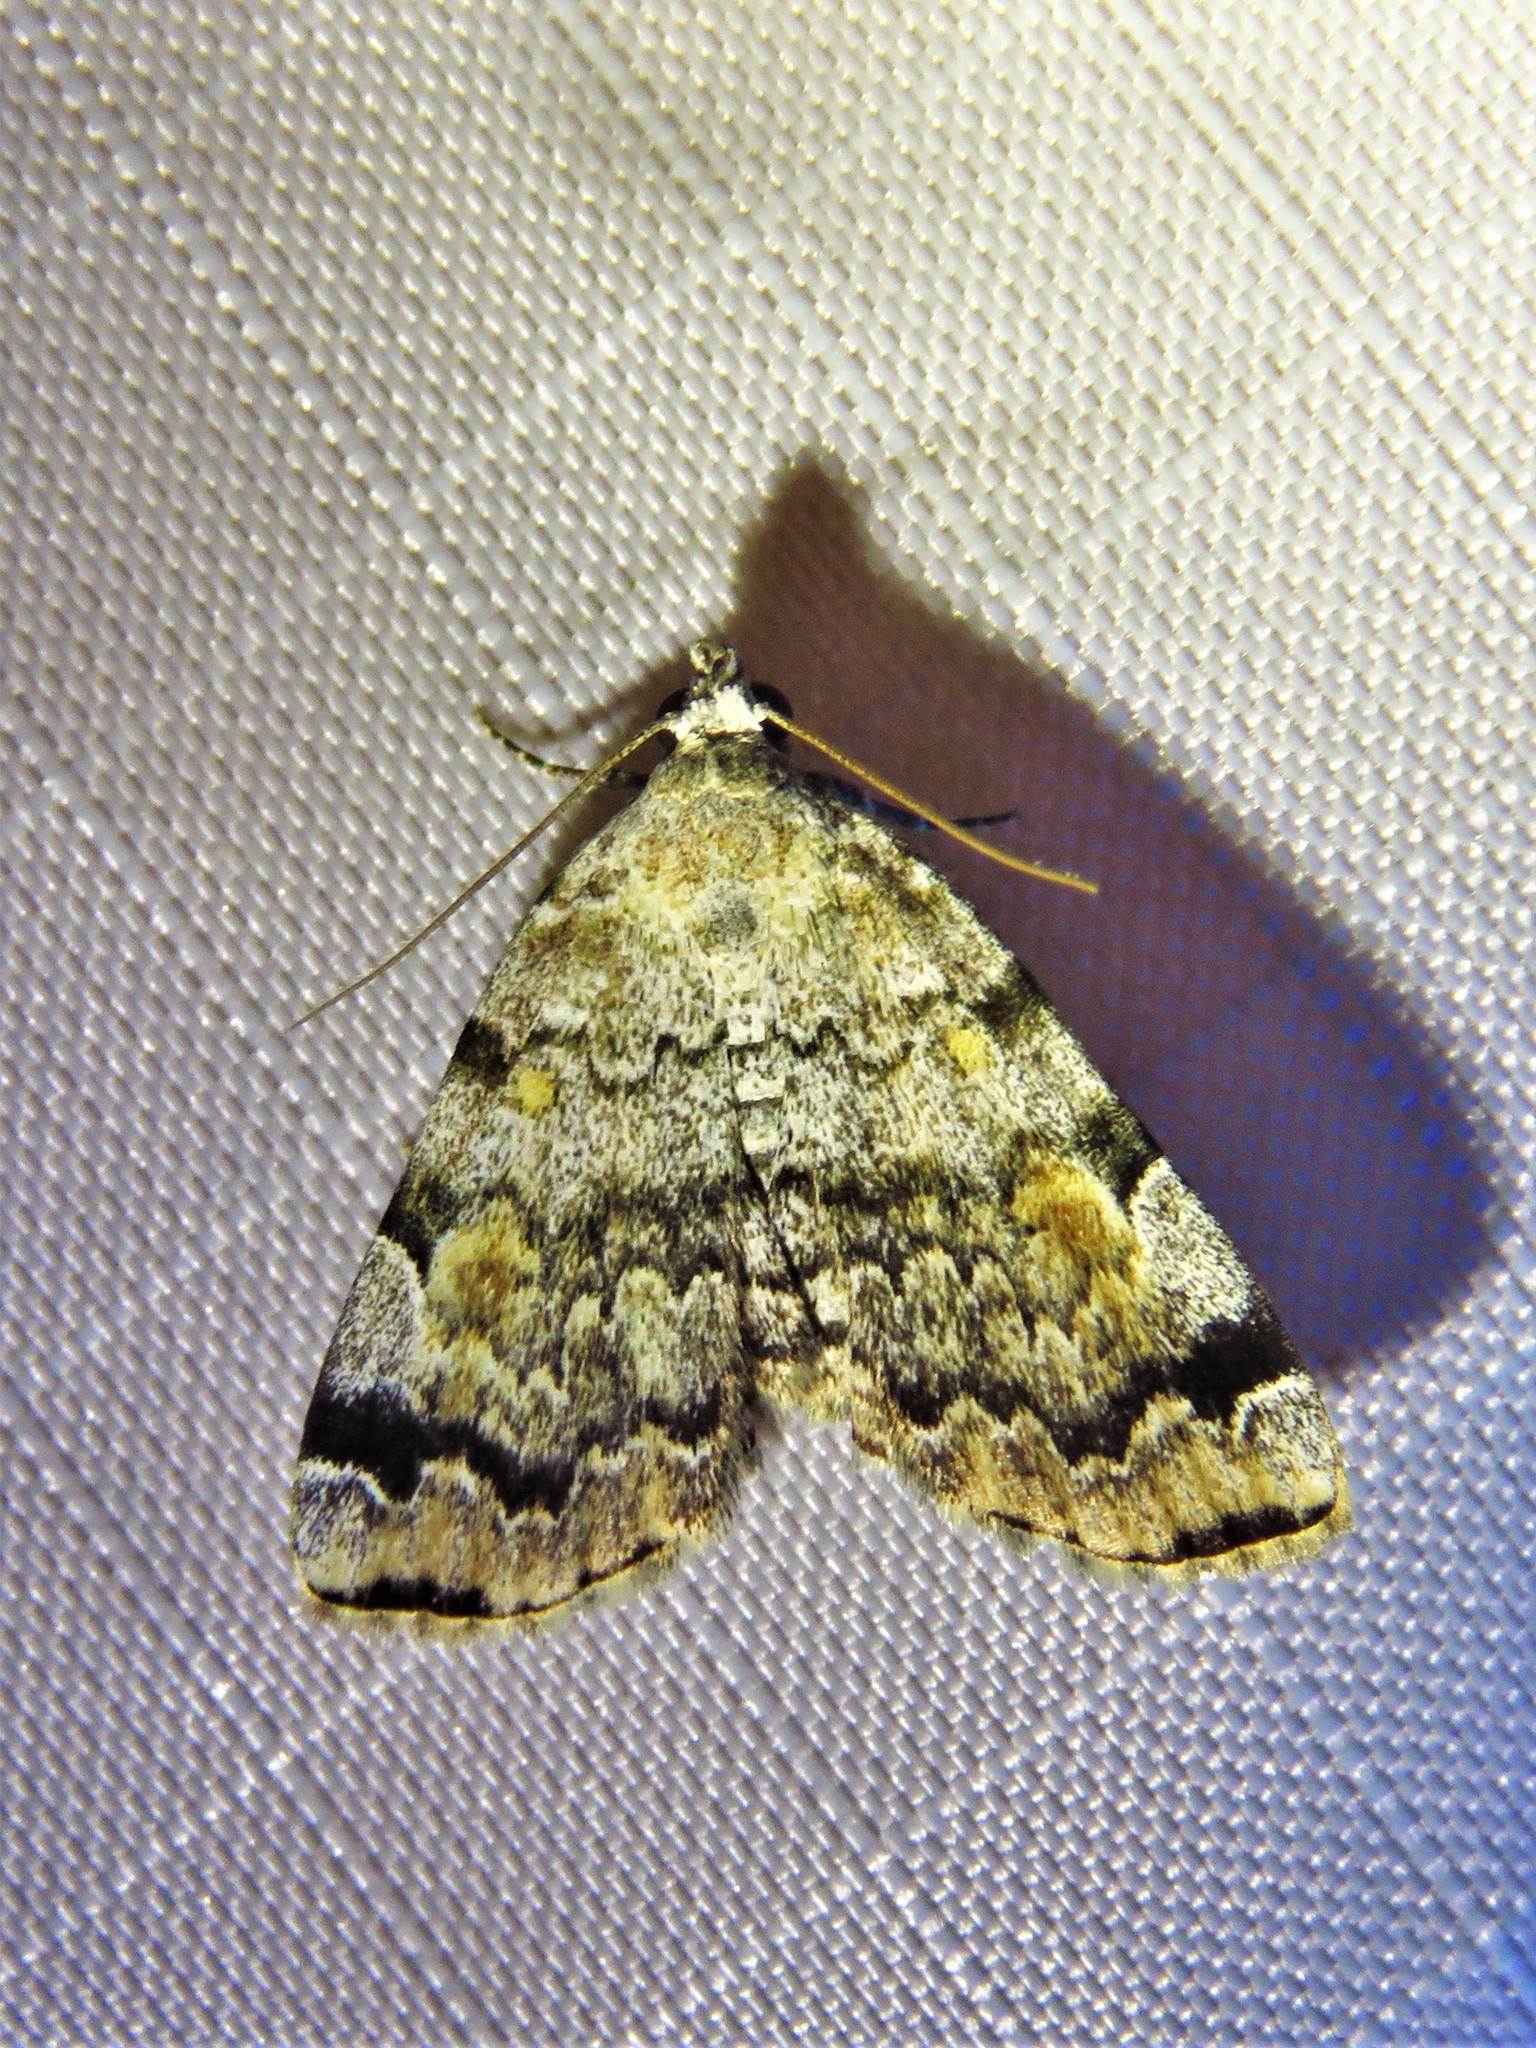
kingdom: Animalia
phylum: Arthropoda
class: Insecta
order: Lepidoptera
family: Erebidae
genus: Idia
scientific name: Idia americalis
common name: American idia moth
